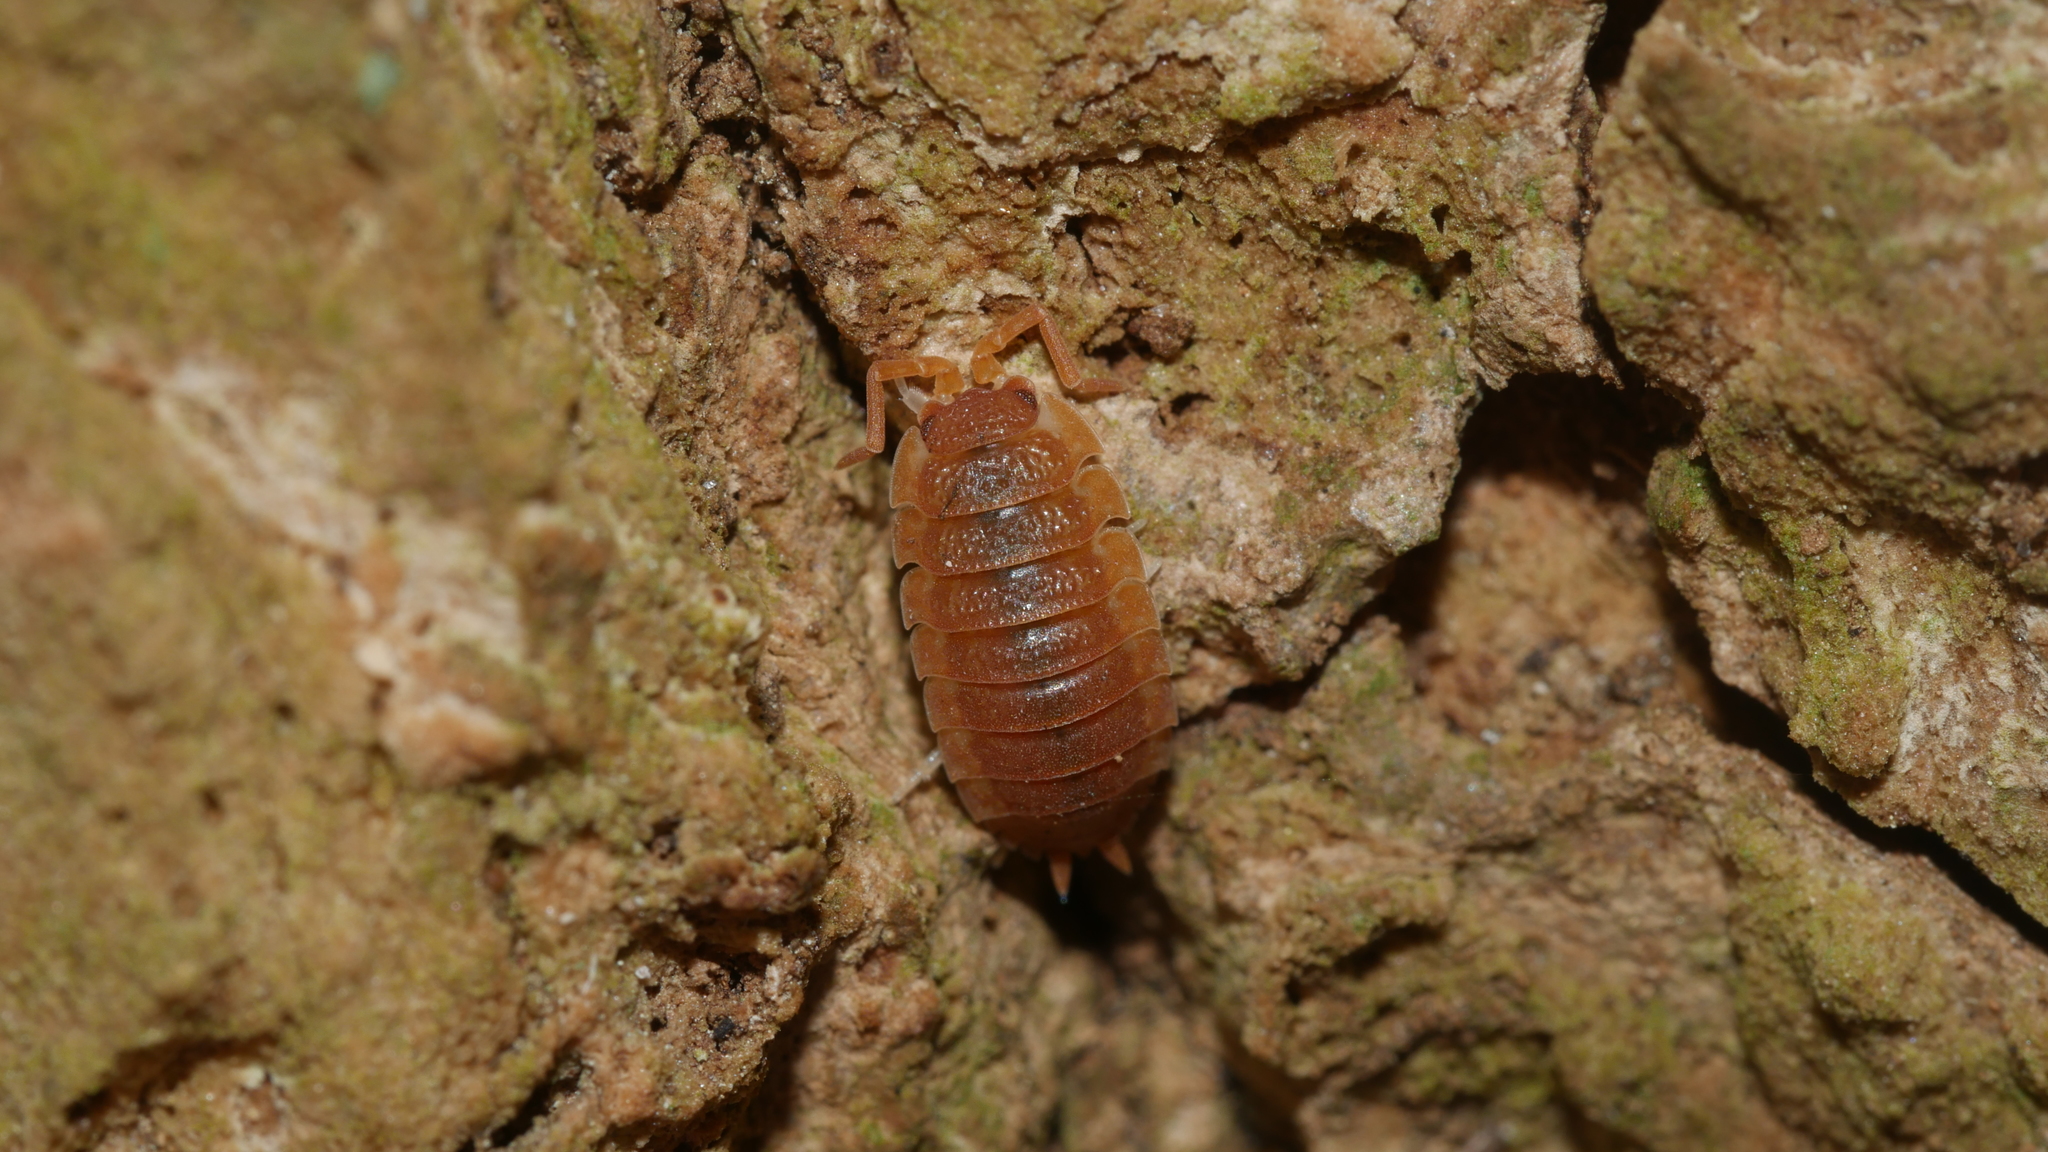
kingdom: Animalia
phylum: Arthropoda
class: Malacostraca
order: Isopoda
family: Porcellionidae
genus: Porcellio
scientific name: Porcellio scaber
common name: Common rough woodlouse
